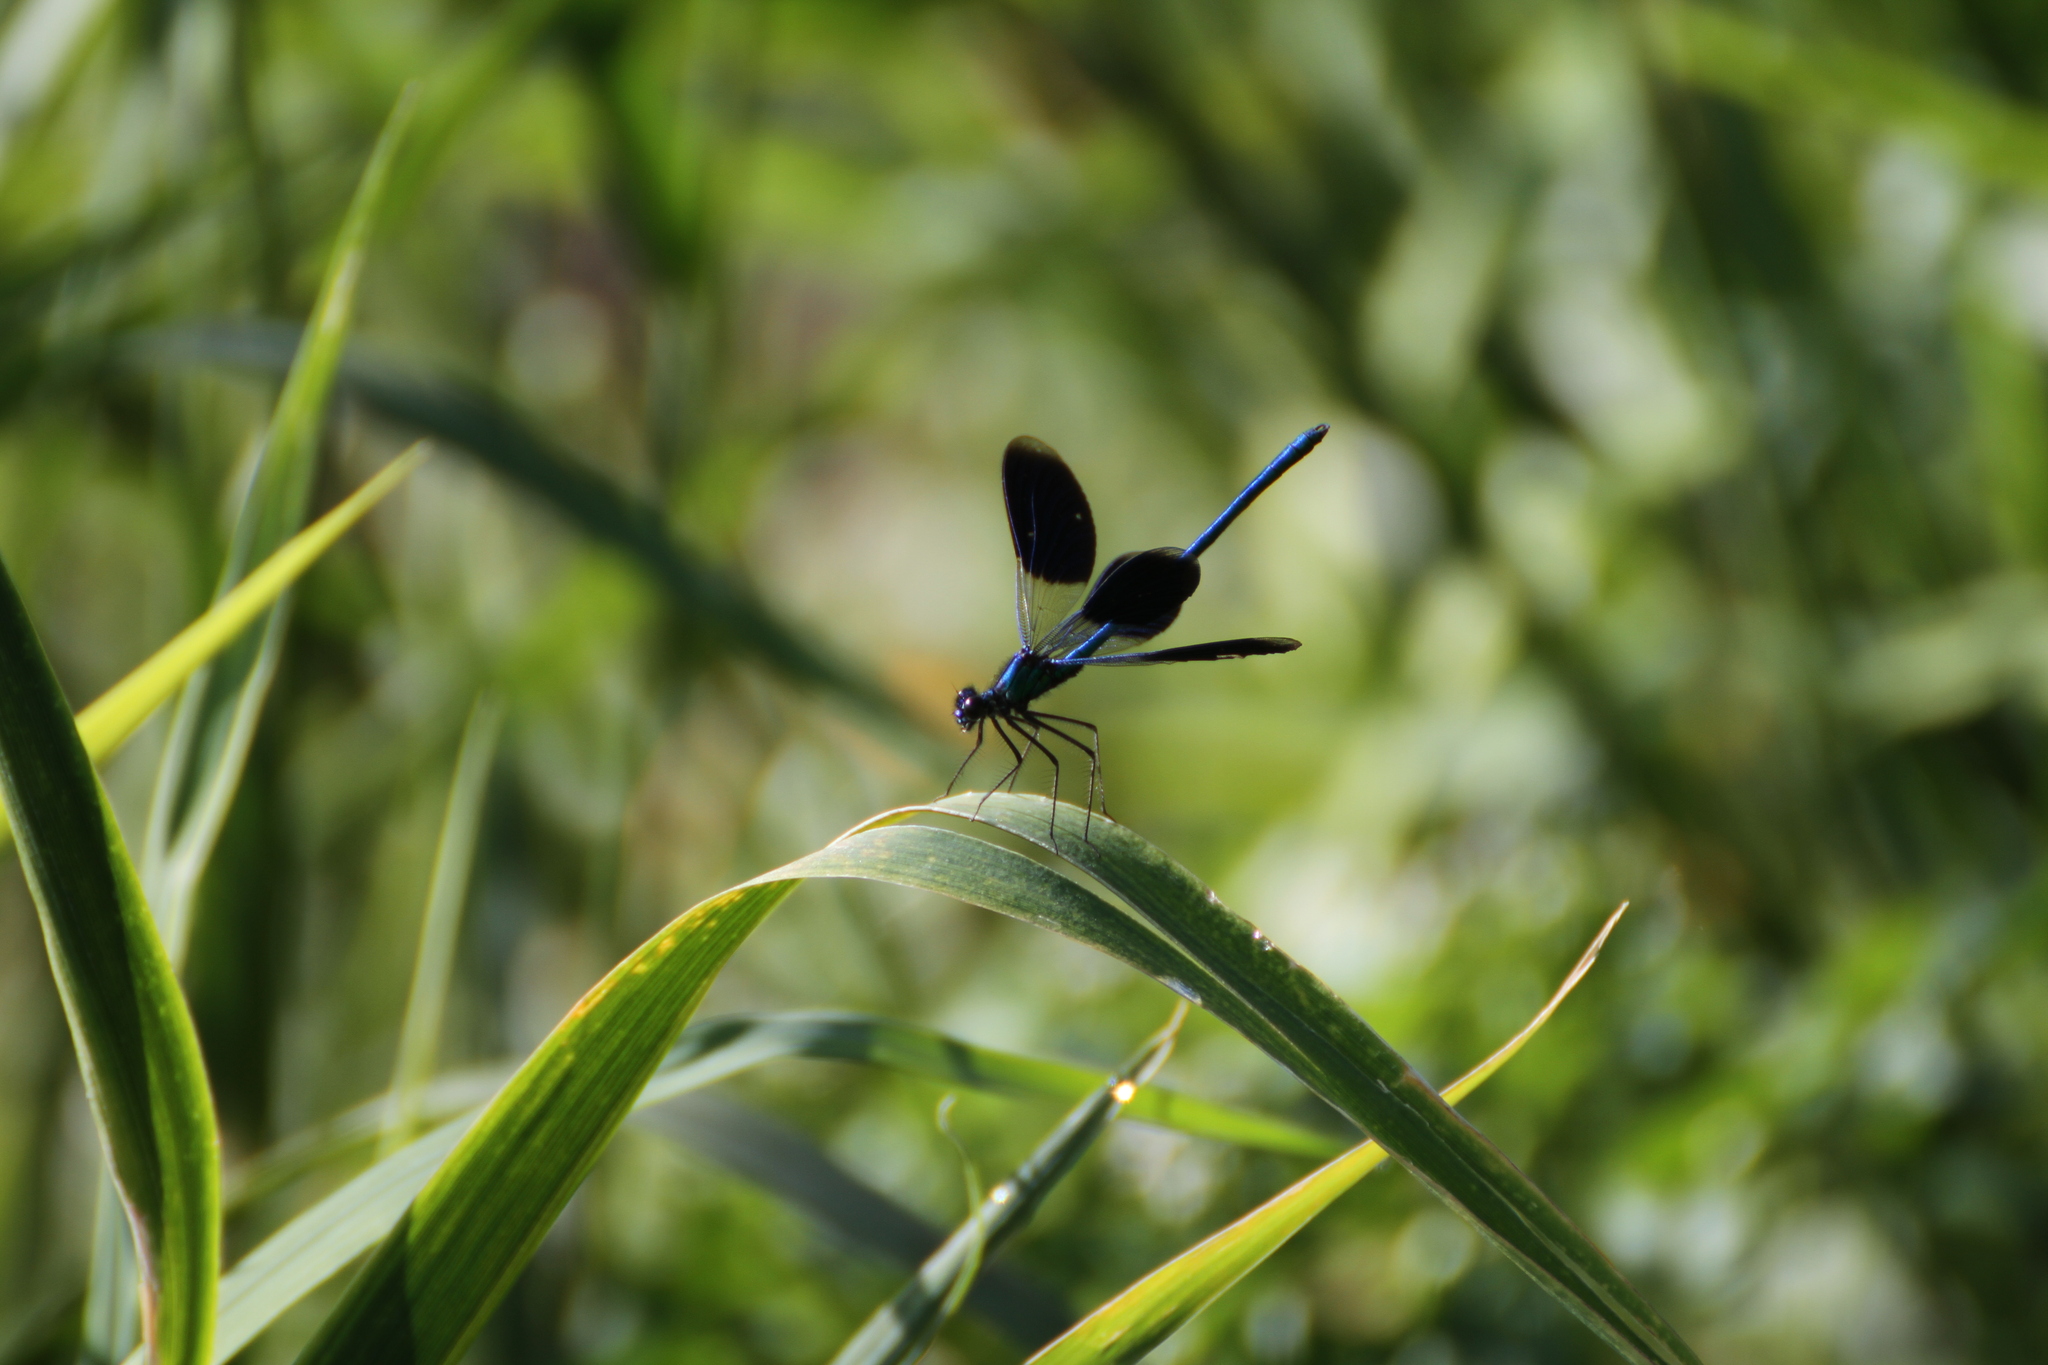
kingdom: Animalia
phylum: Arthropoda
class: Insecta
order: Odonata
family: Calopterygidae
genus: Calopteryx
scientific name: Calopteryx splendens
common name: Banded demoiselle
